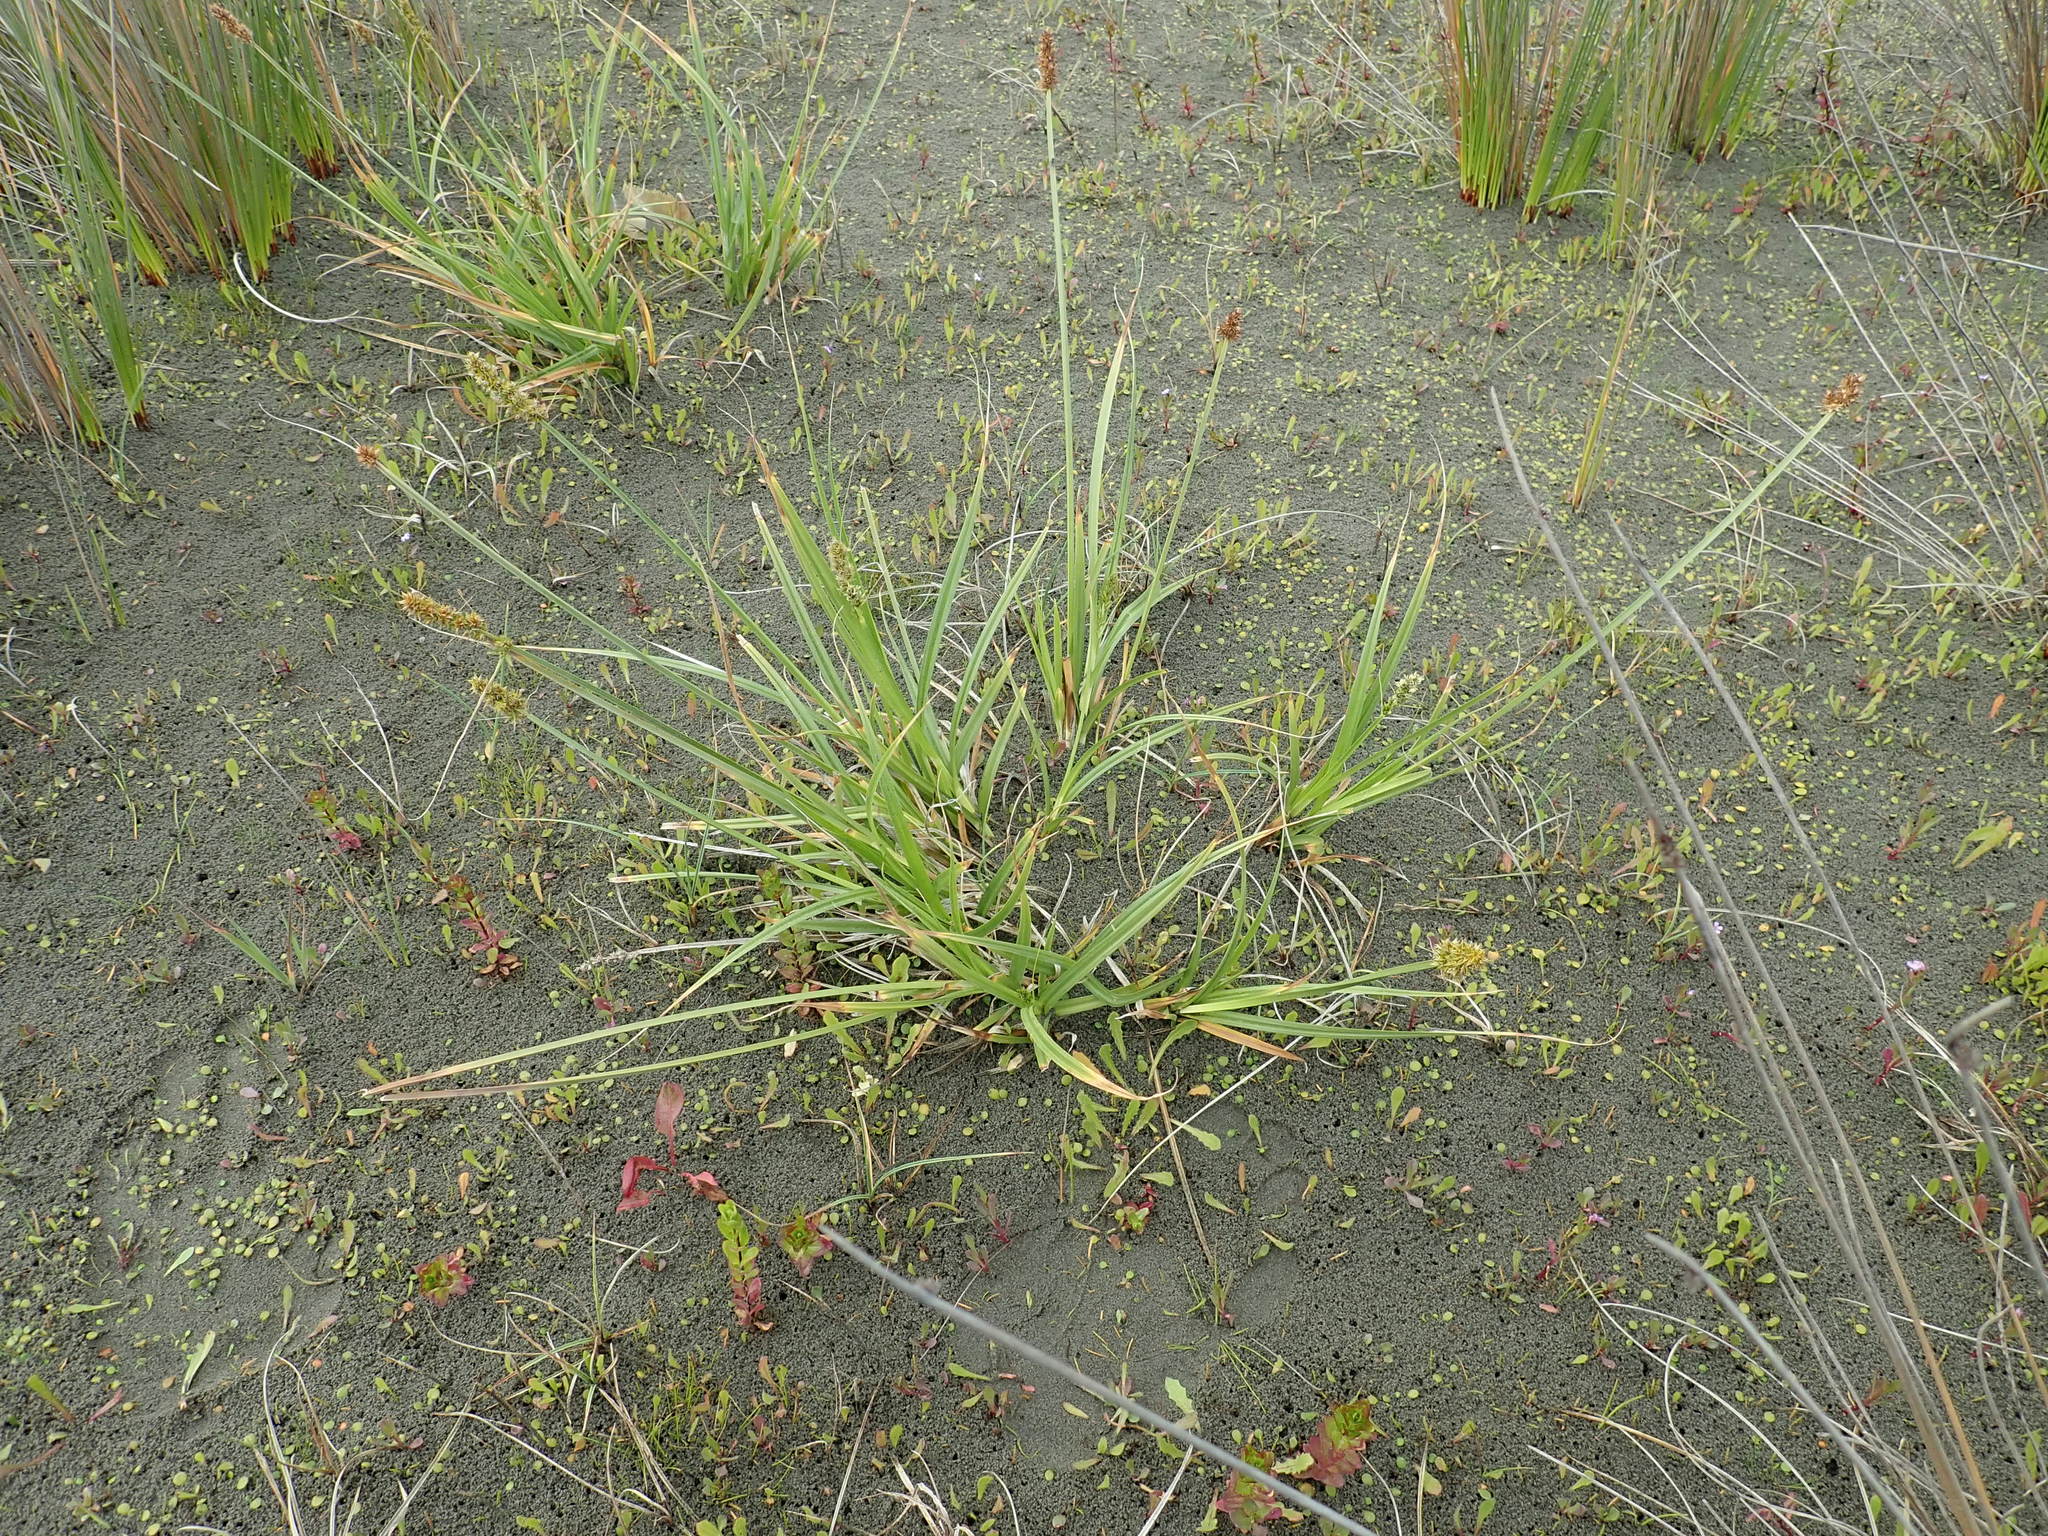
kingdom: Plantae
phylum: Tracheophyta
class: Liliopsida
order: Poales
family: Cyperaceae
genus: Carex
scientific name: Carex otrubae
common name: False fox-sedge
